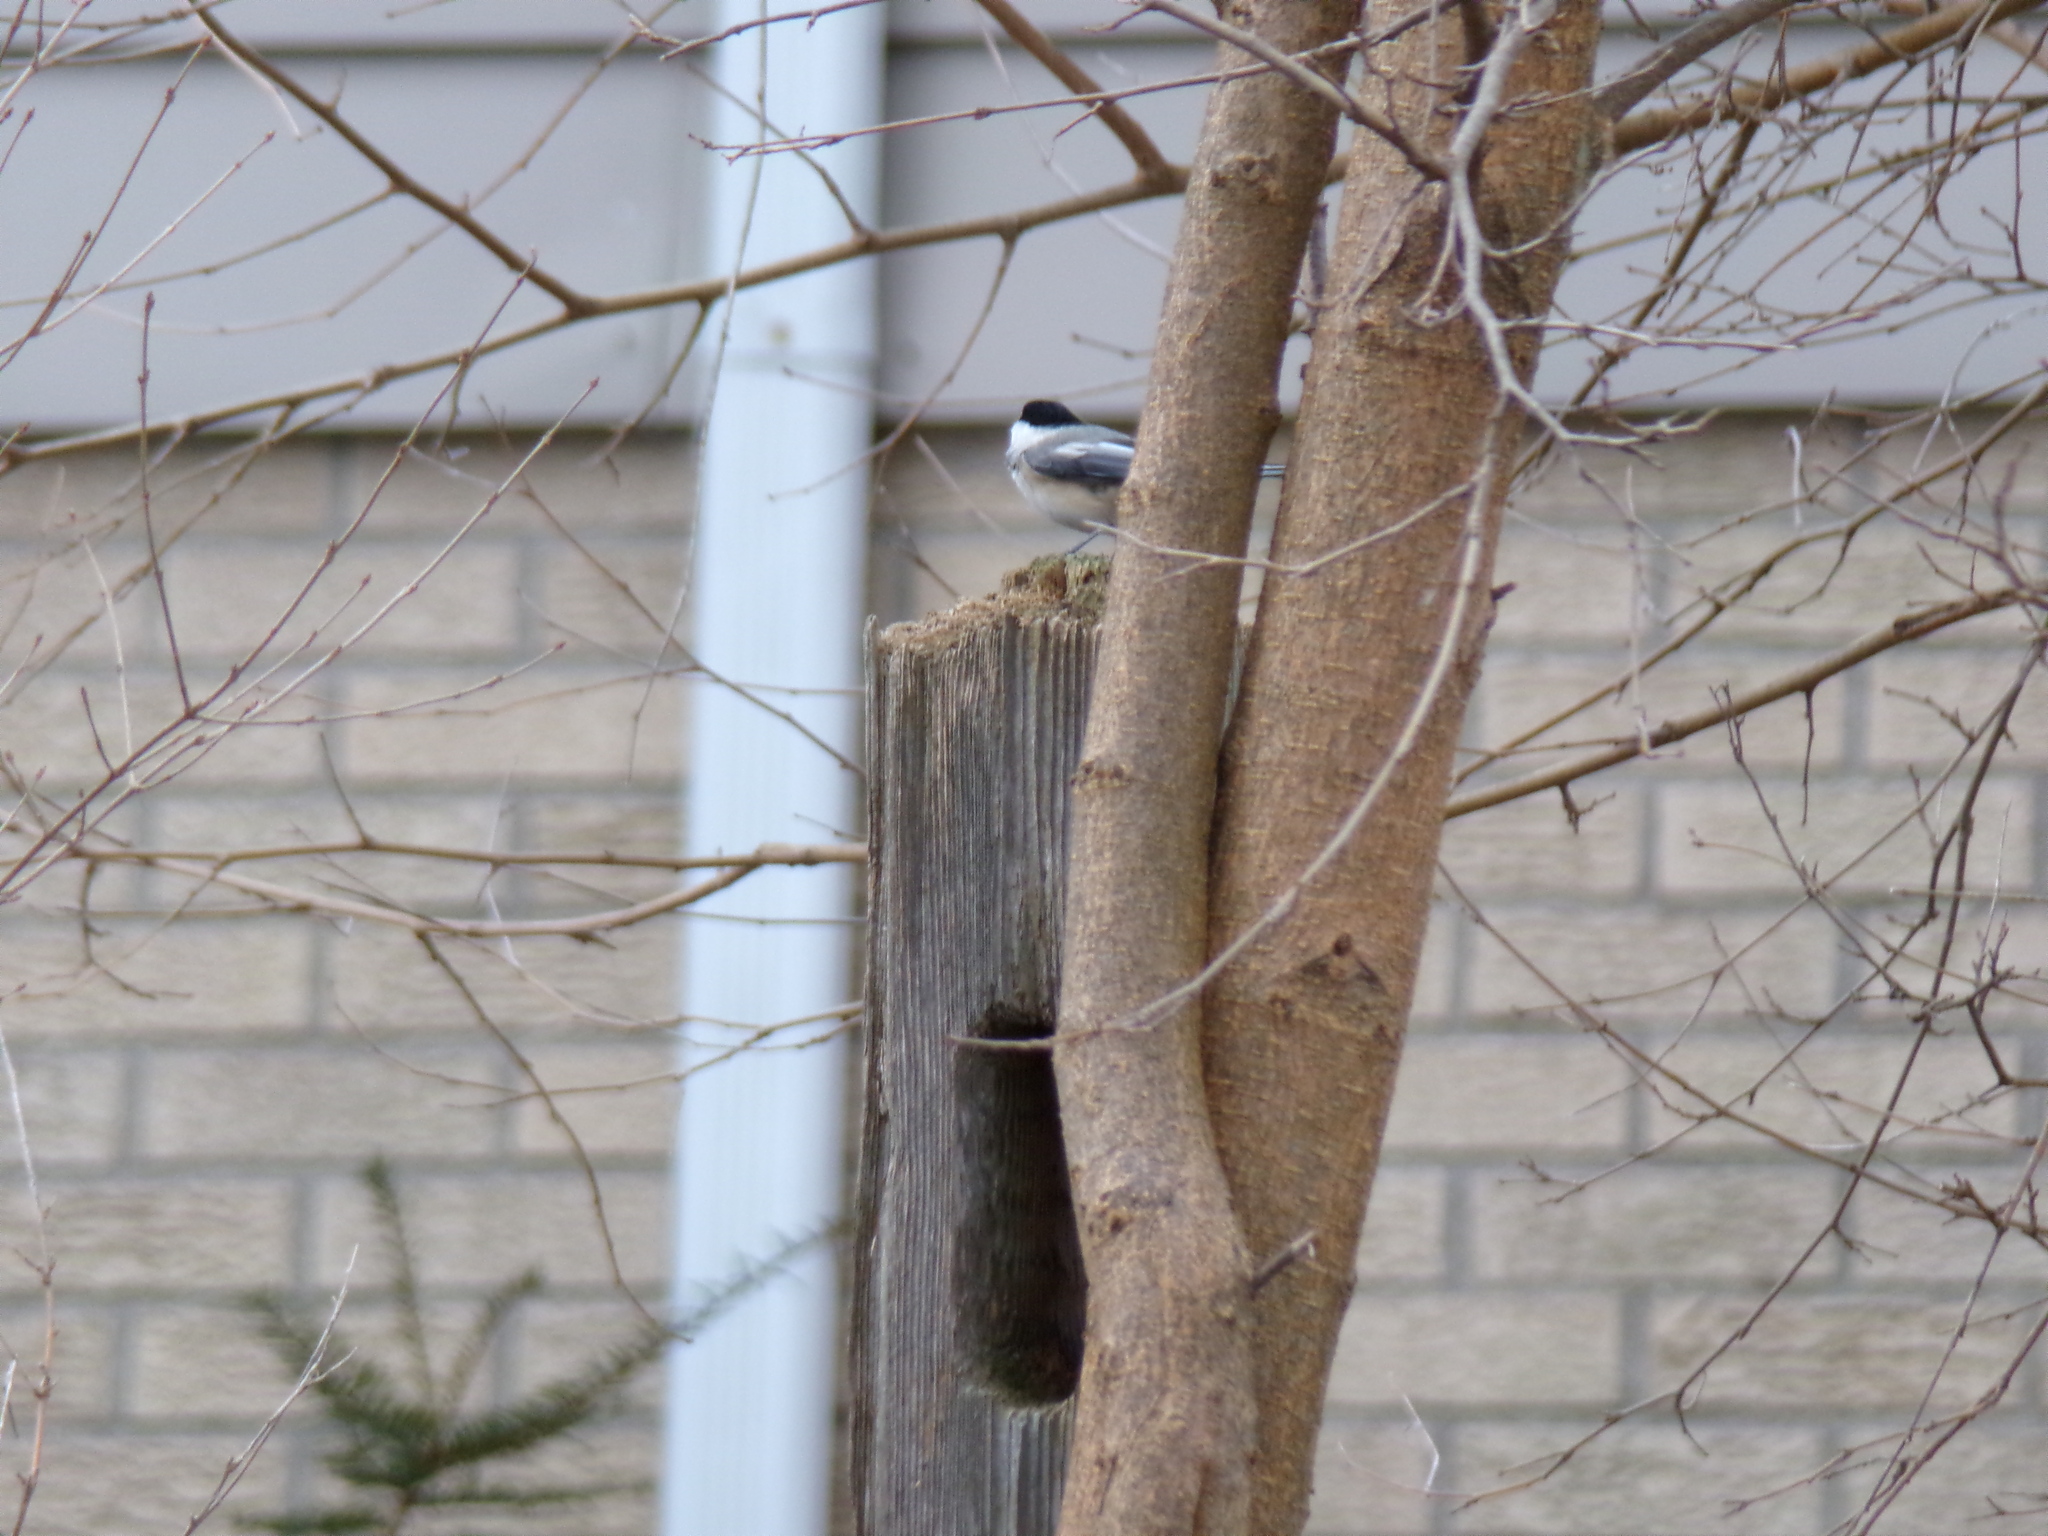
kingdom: Animalia
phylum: Chordata
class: Aves
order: Passeriformes
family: Paridae
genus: Poecile
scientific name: Poecile atricapillus
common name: Black-capped chickadee
